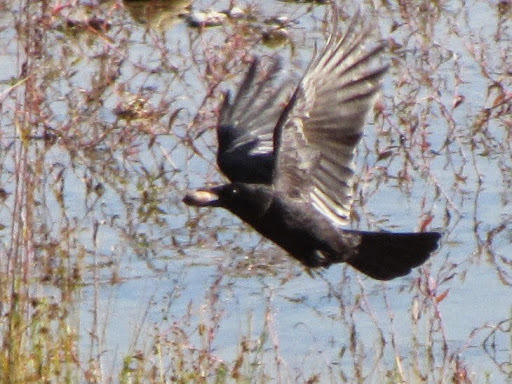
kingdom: Animalia
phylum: Chordata
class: Aves
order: Passeriformes
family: Corvidae
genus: Corvus
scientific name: Corvus brachyrhynchos
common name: American crow
